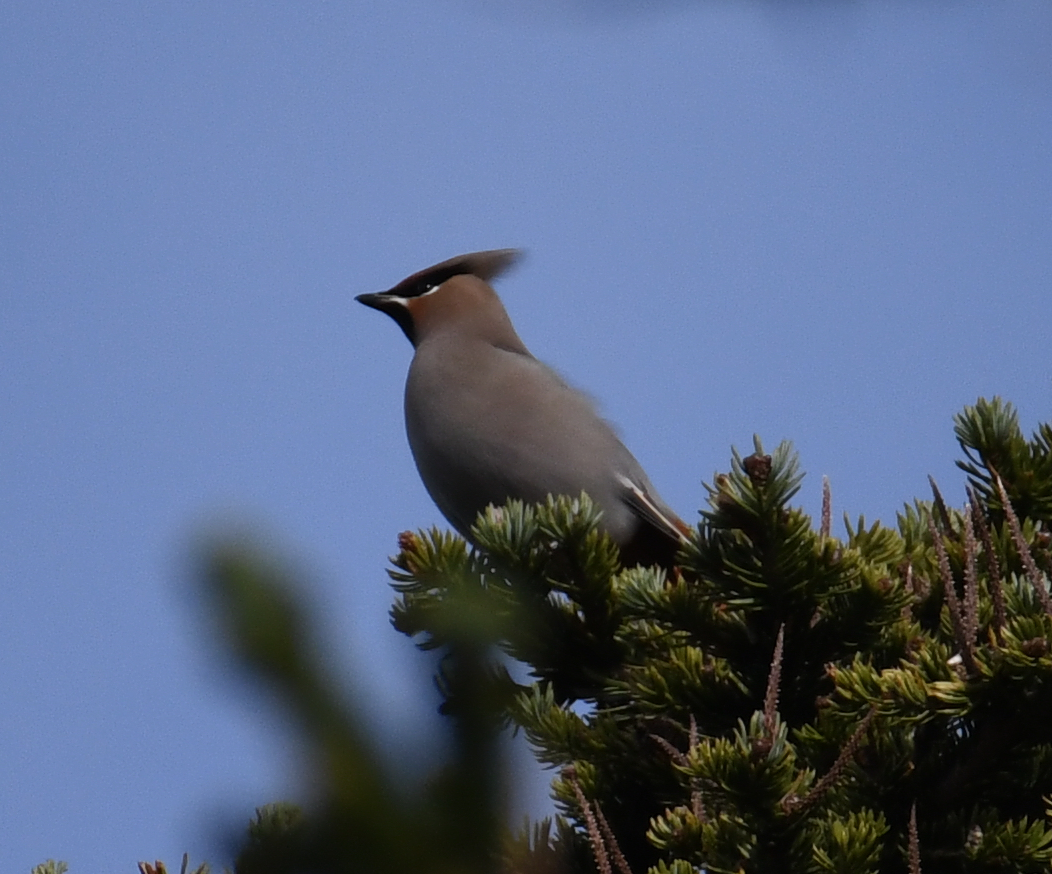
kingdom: Animalia
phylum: Chordata
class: Aves
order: Passeriformes
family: Bombycillidae
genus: Bombycilla
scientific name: Bombycilla garrulus
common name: Bohemian waxwing
